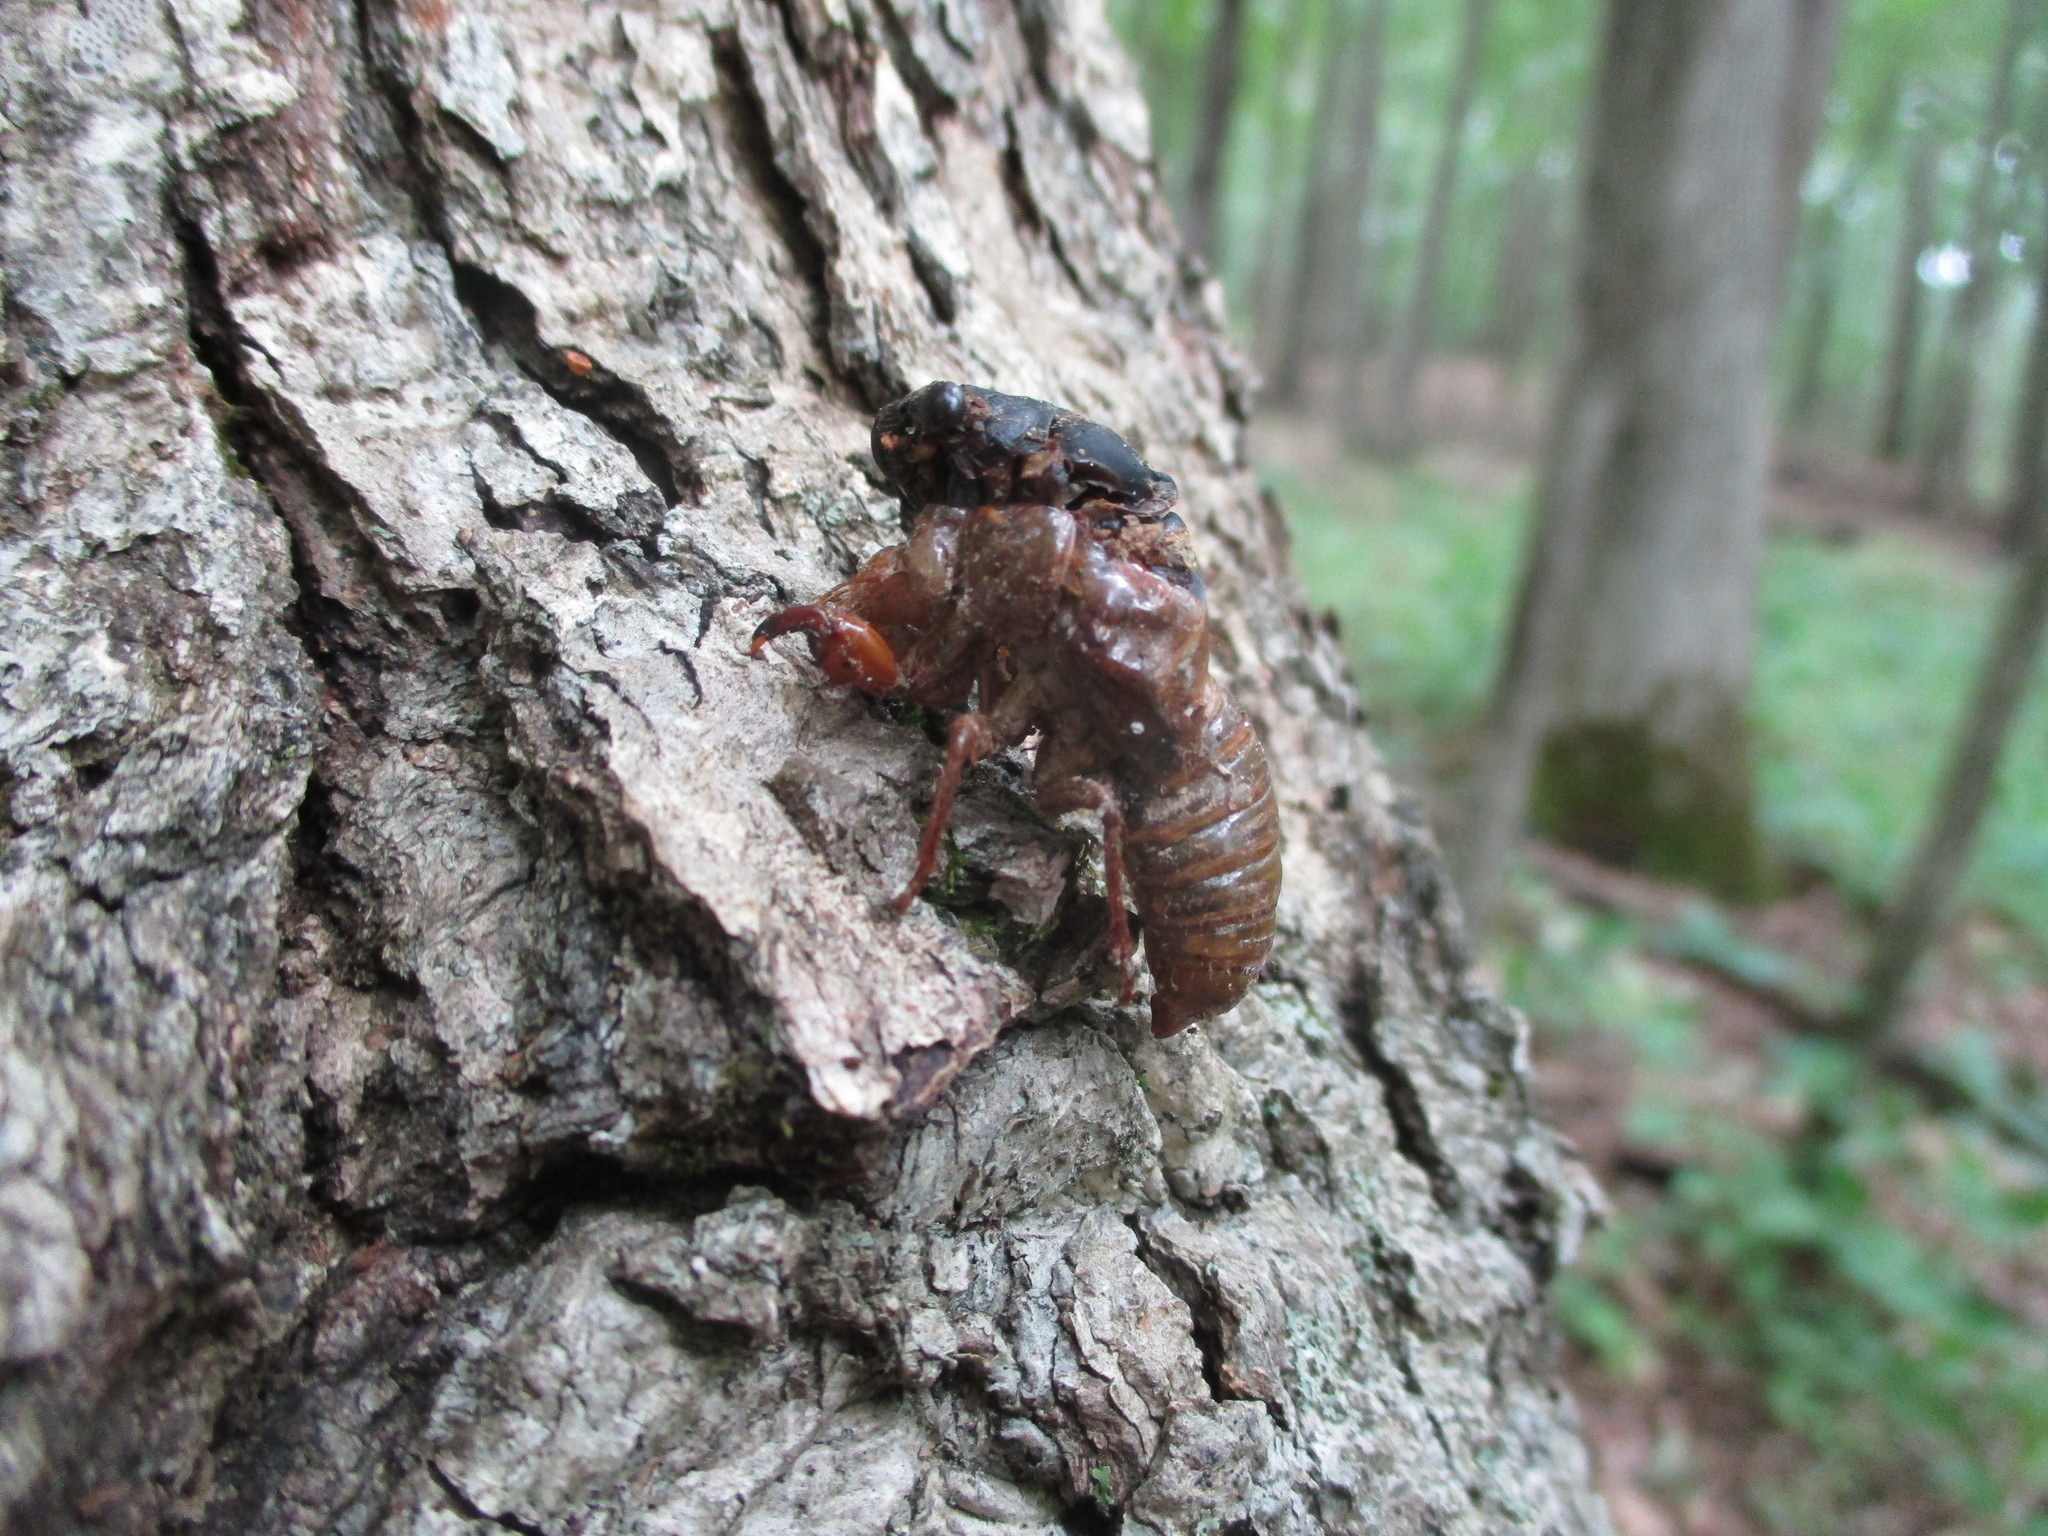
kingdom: Animalia
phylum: Arthropoda
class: Insecta
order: Hemiptera
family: Cicadidae
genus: Magicicada
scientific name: Magicicada
